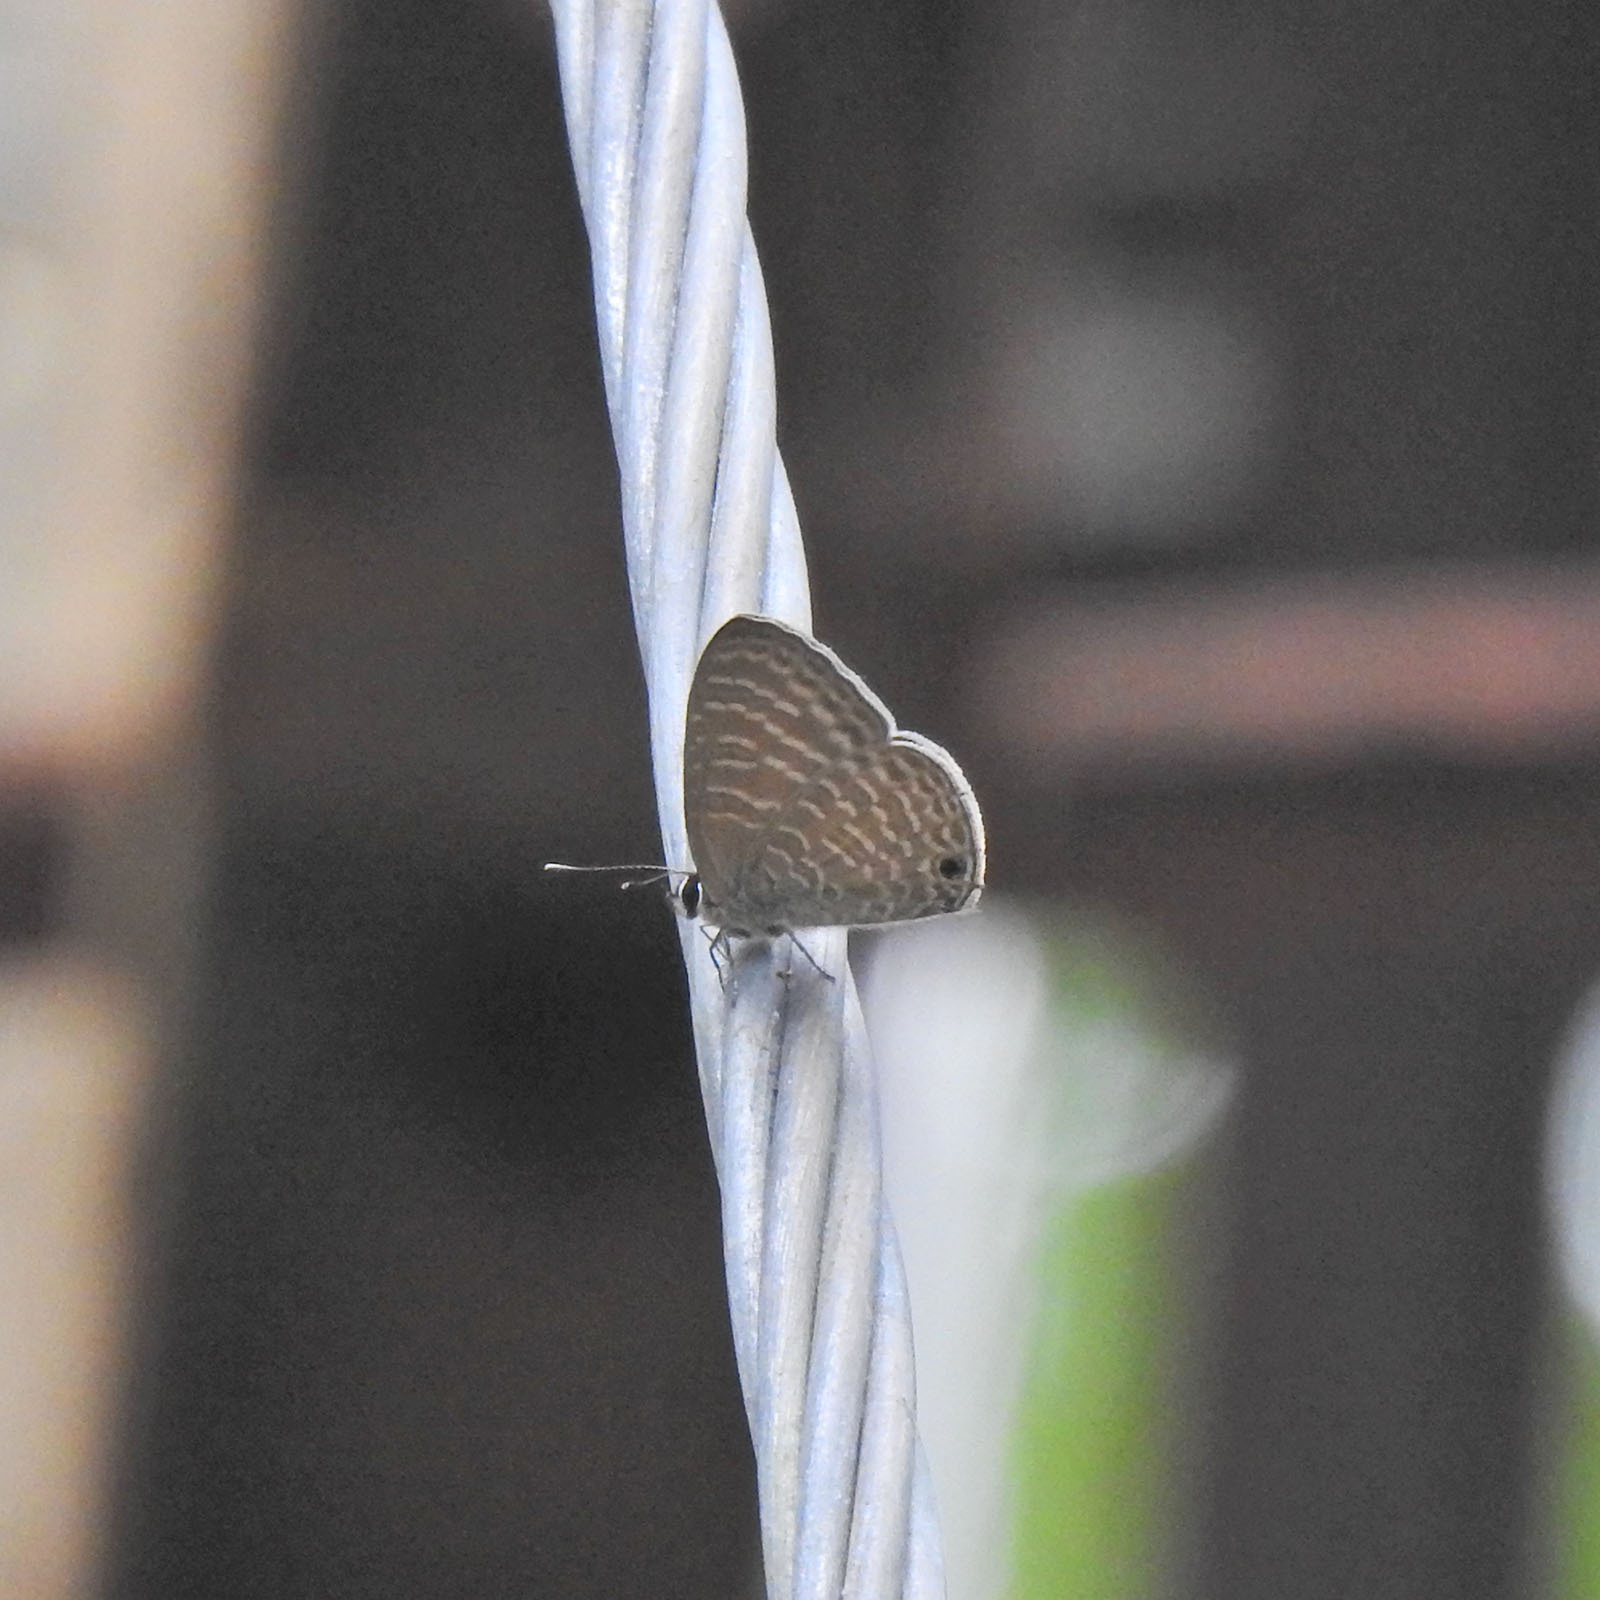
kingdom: Animalia
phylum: Arthropoda
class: Insecta
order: Lepidoptera
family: Lycaenidae
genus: Nacaduba
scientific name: Nacaduba kurava
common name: Transparent 6-line blue
